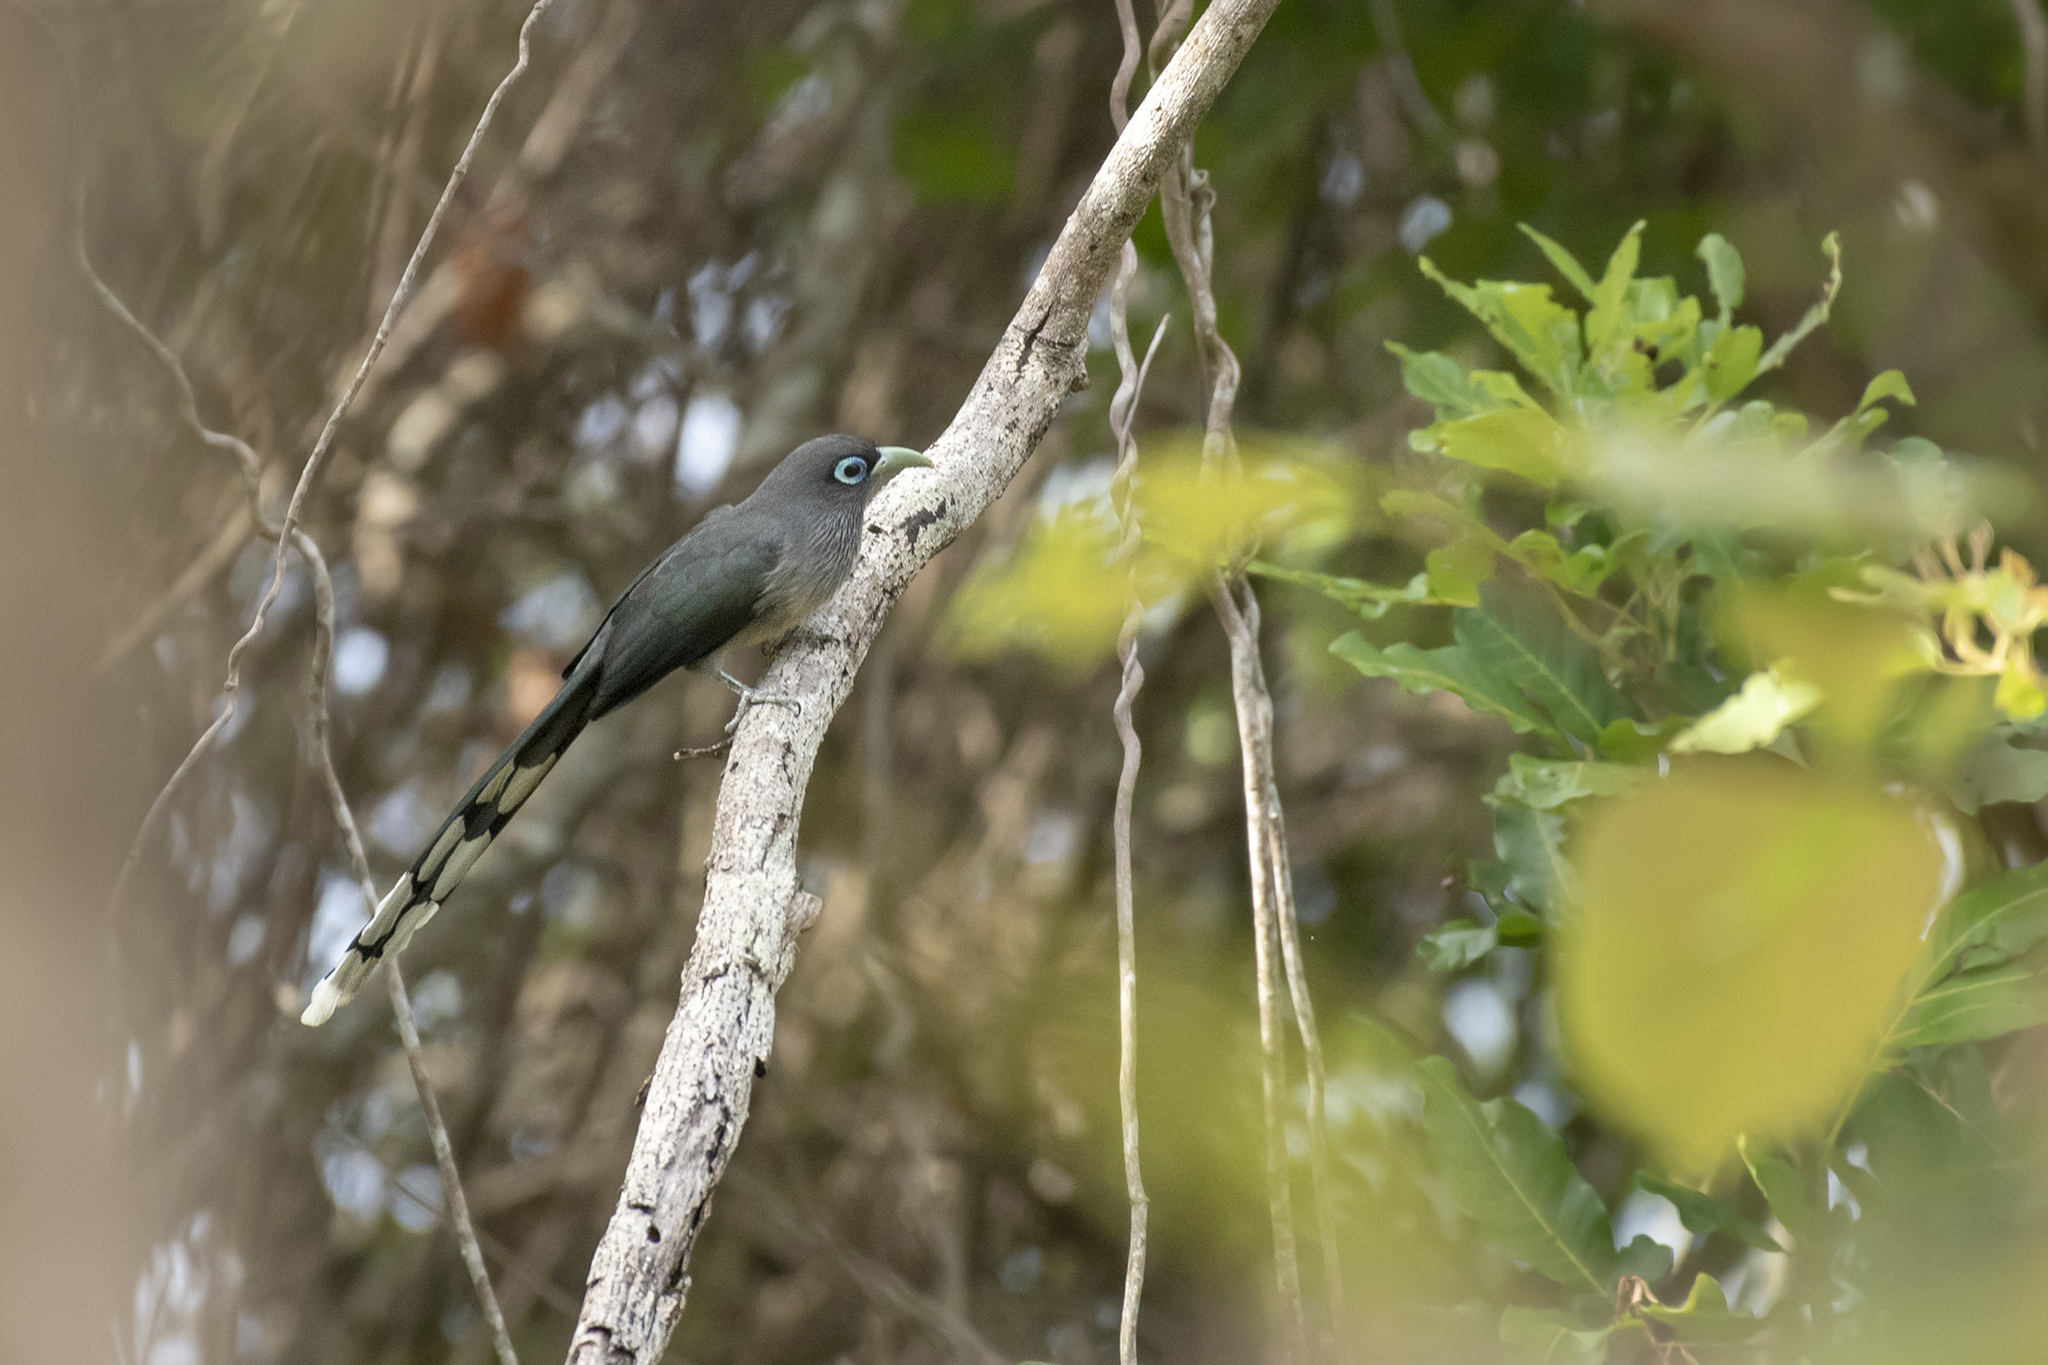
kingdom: Animalia
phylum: Chordata
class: Aves
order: Cuculiformes
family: Cuculidae
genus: Rhopodytes
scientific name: Rhopodytes viridirostris
